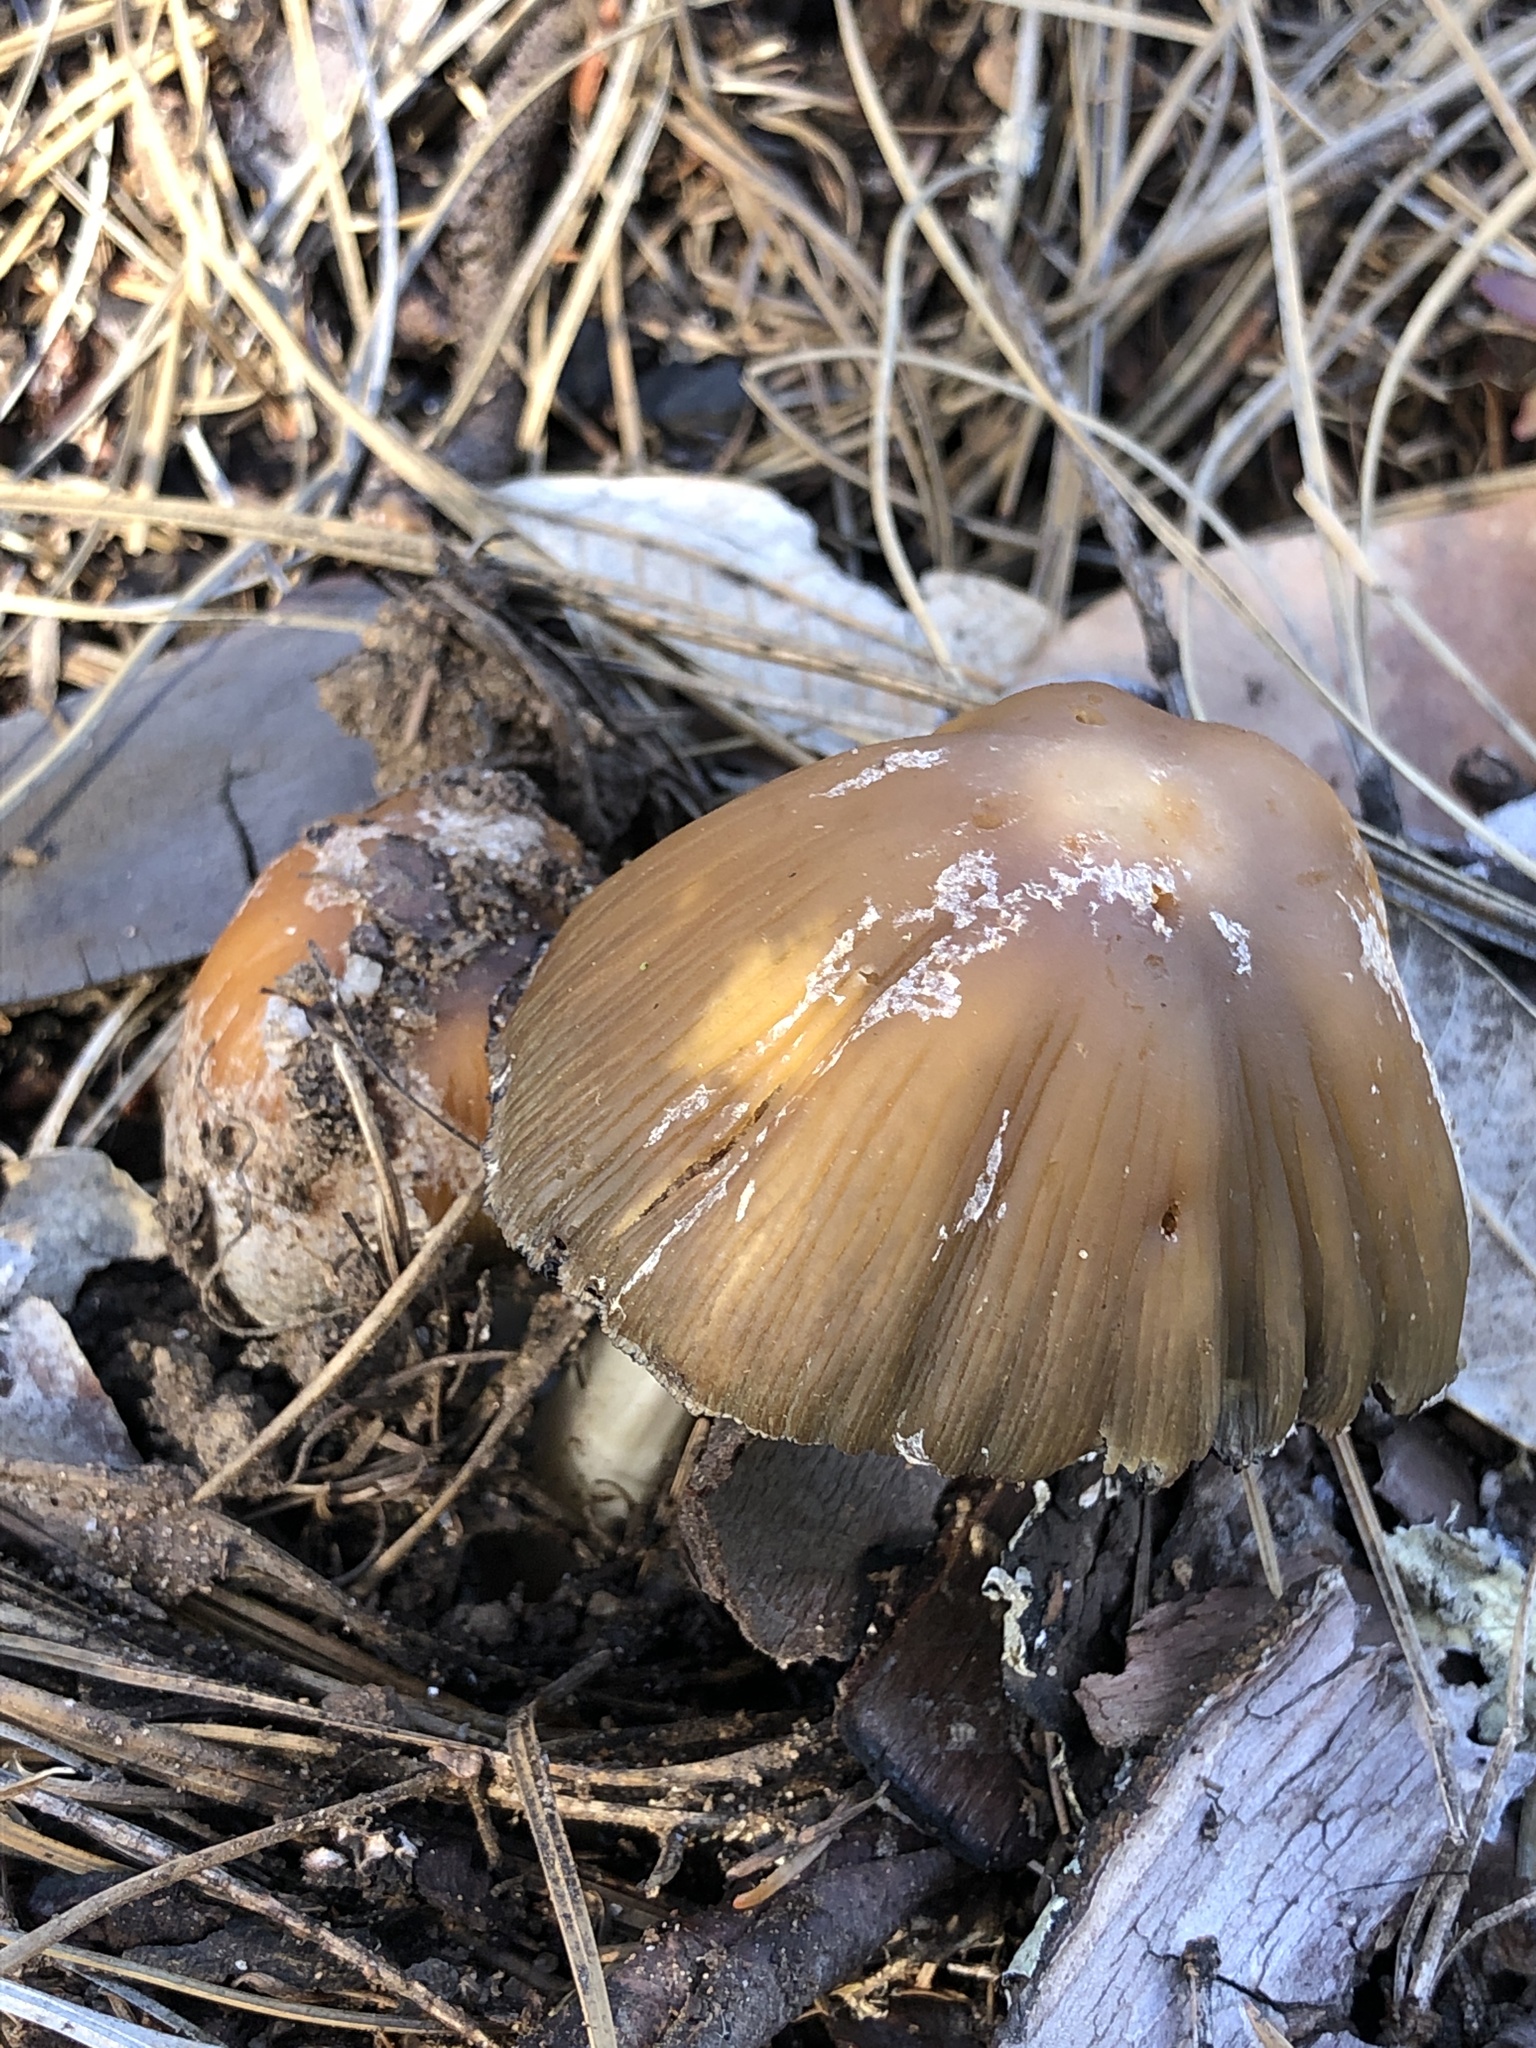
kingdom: Fungi
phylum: Basidiomycota
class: Agaricomycetes
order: Agaricales
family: Psathyrellaceae
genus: Coprinellus
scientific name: Coprinellus bipellis
